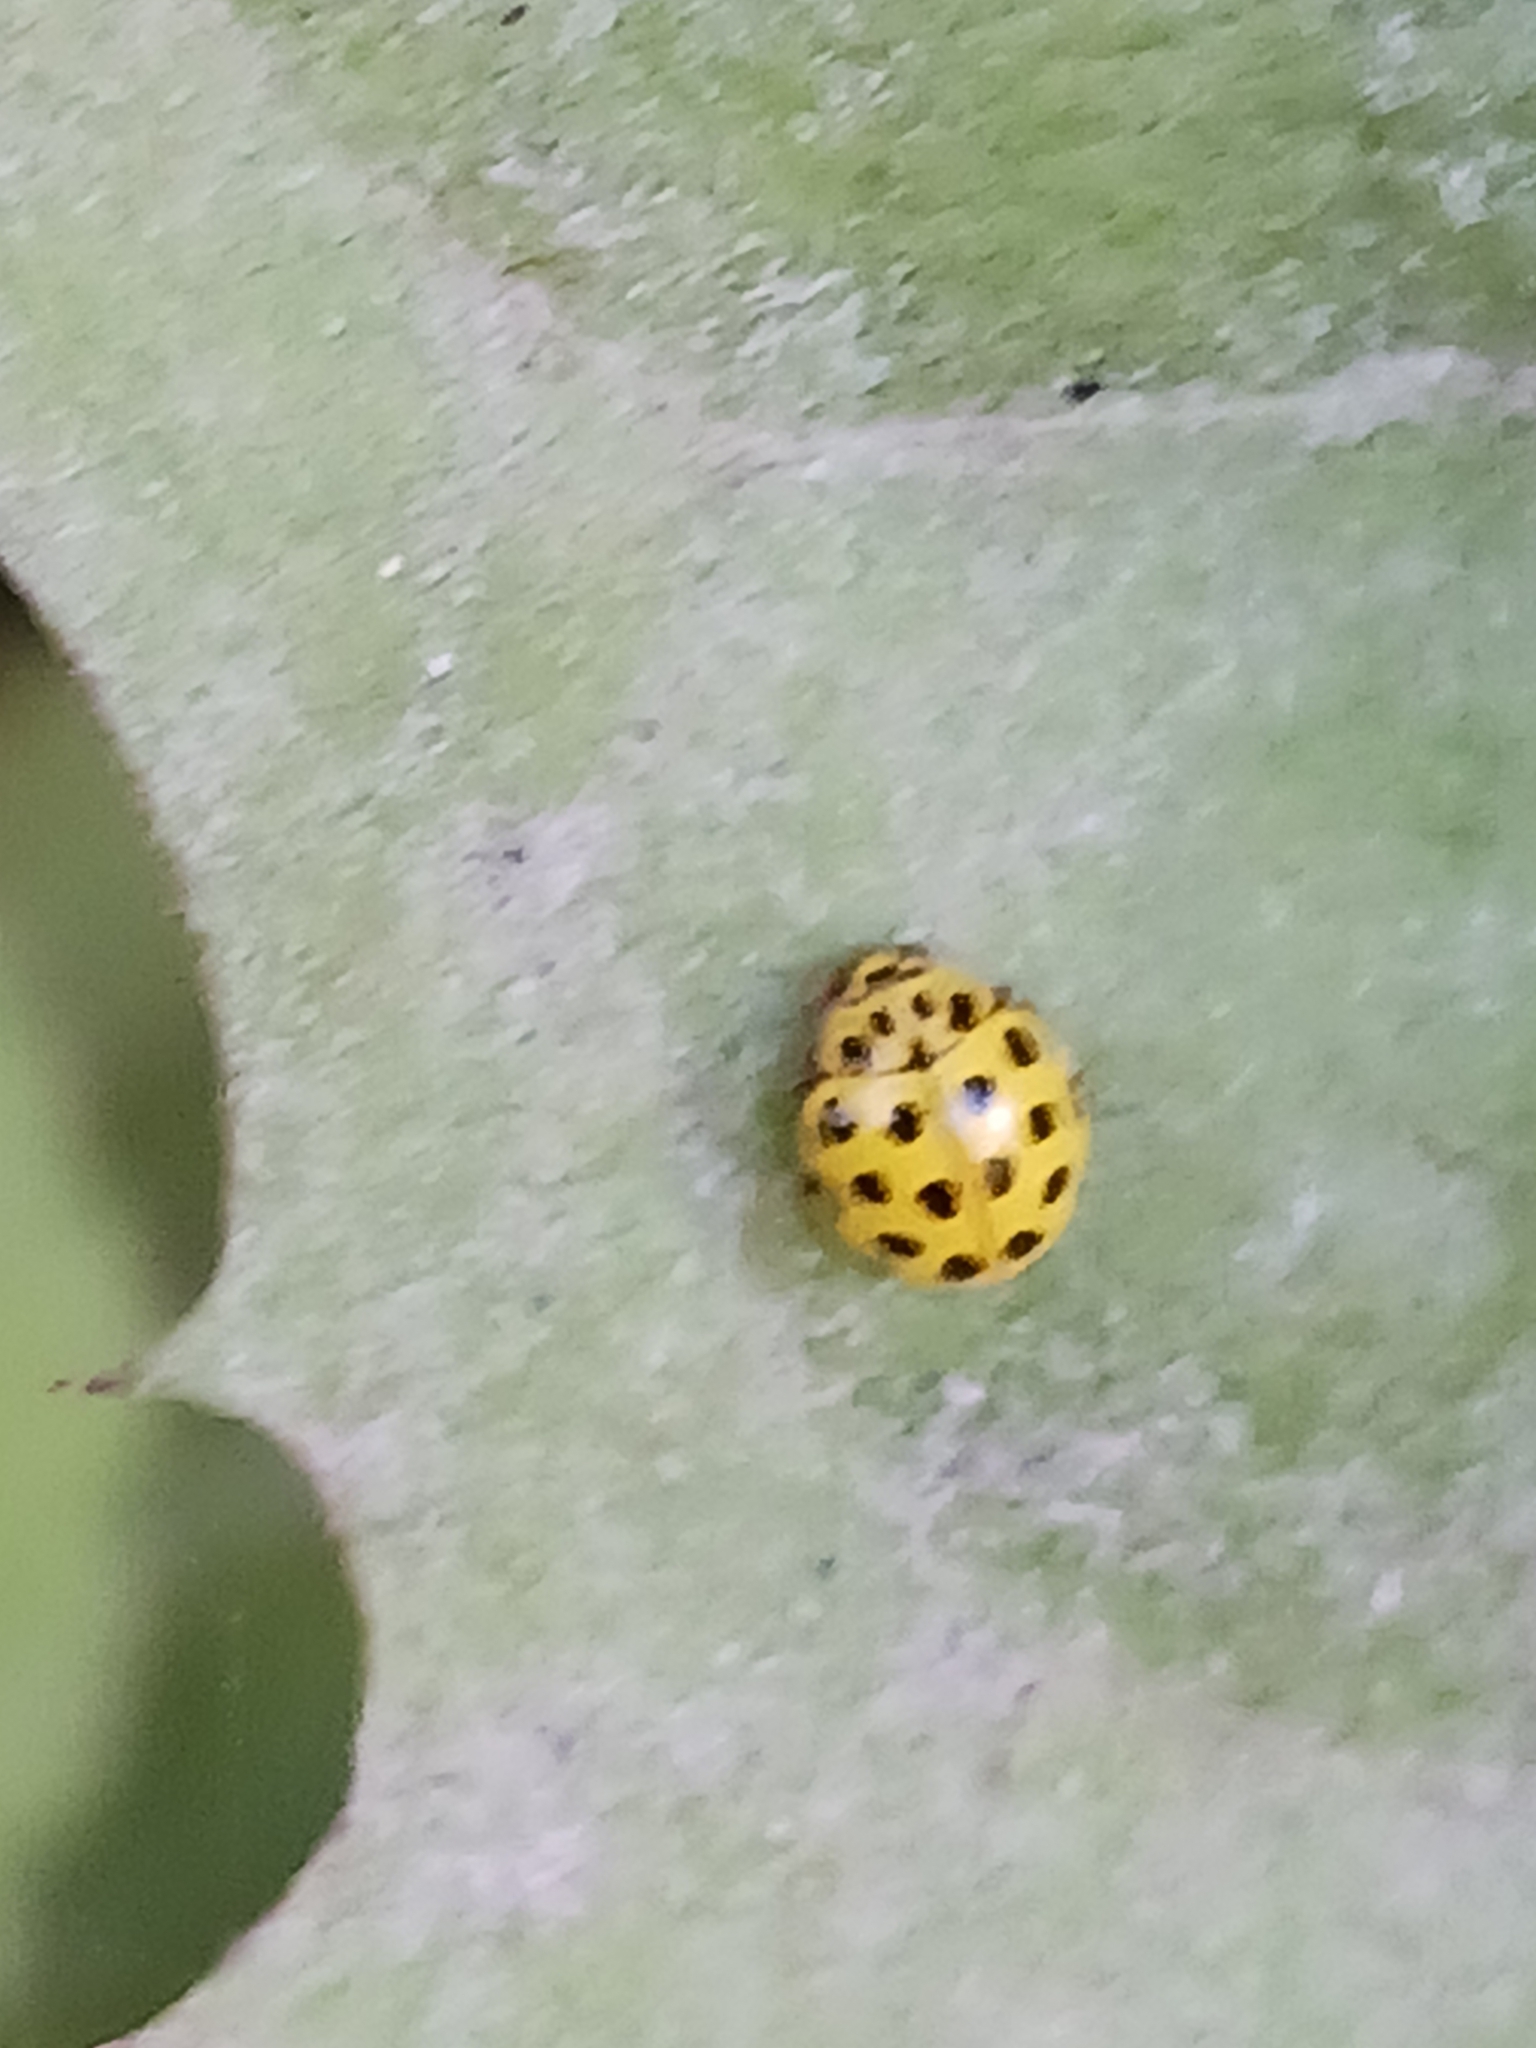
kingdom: Animalia
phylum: Arthropoda
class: Insecta
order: Coleoptera
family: Coccinellidae
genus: Psyllobora
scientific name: Psyllobora vigintiduopunctata
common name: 22-spot ladybird
